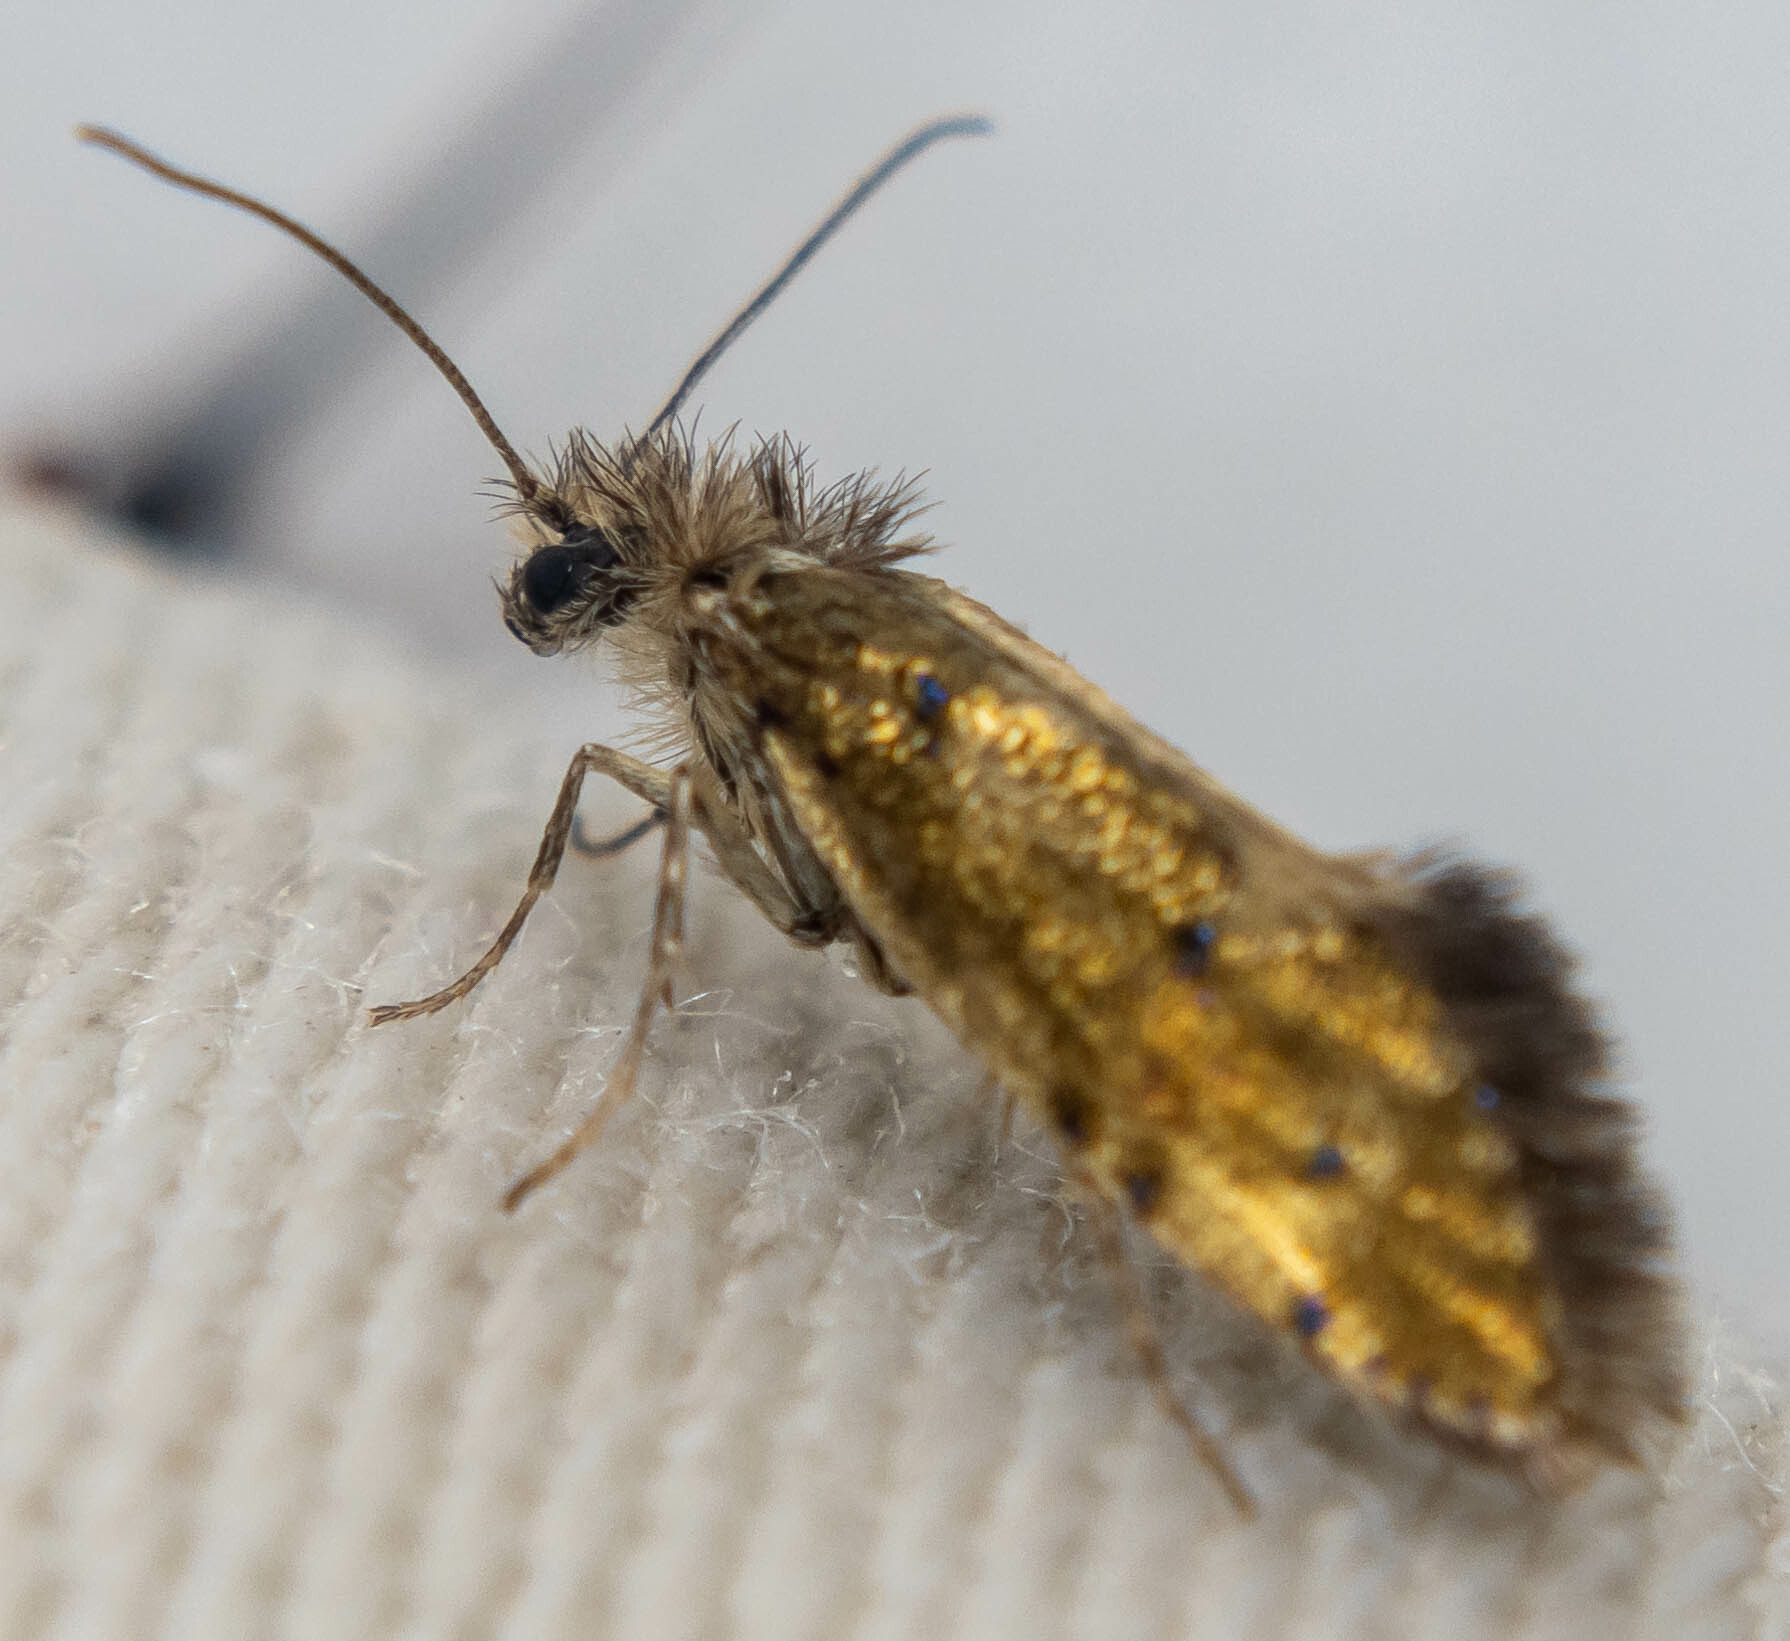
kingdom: Animalia
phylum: Arthropoda
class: Insecta
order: Lepidoptera
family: Eriocraniidae
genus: Dyseriocrania
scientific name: Dyseriocrania subpurpurella
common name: Common oak purple
